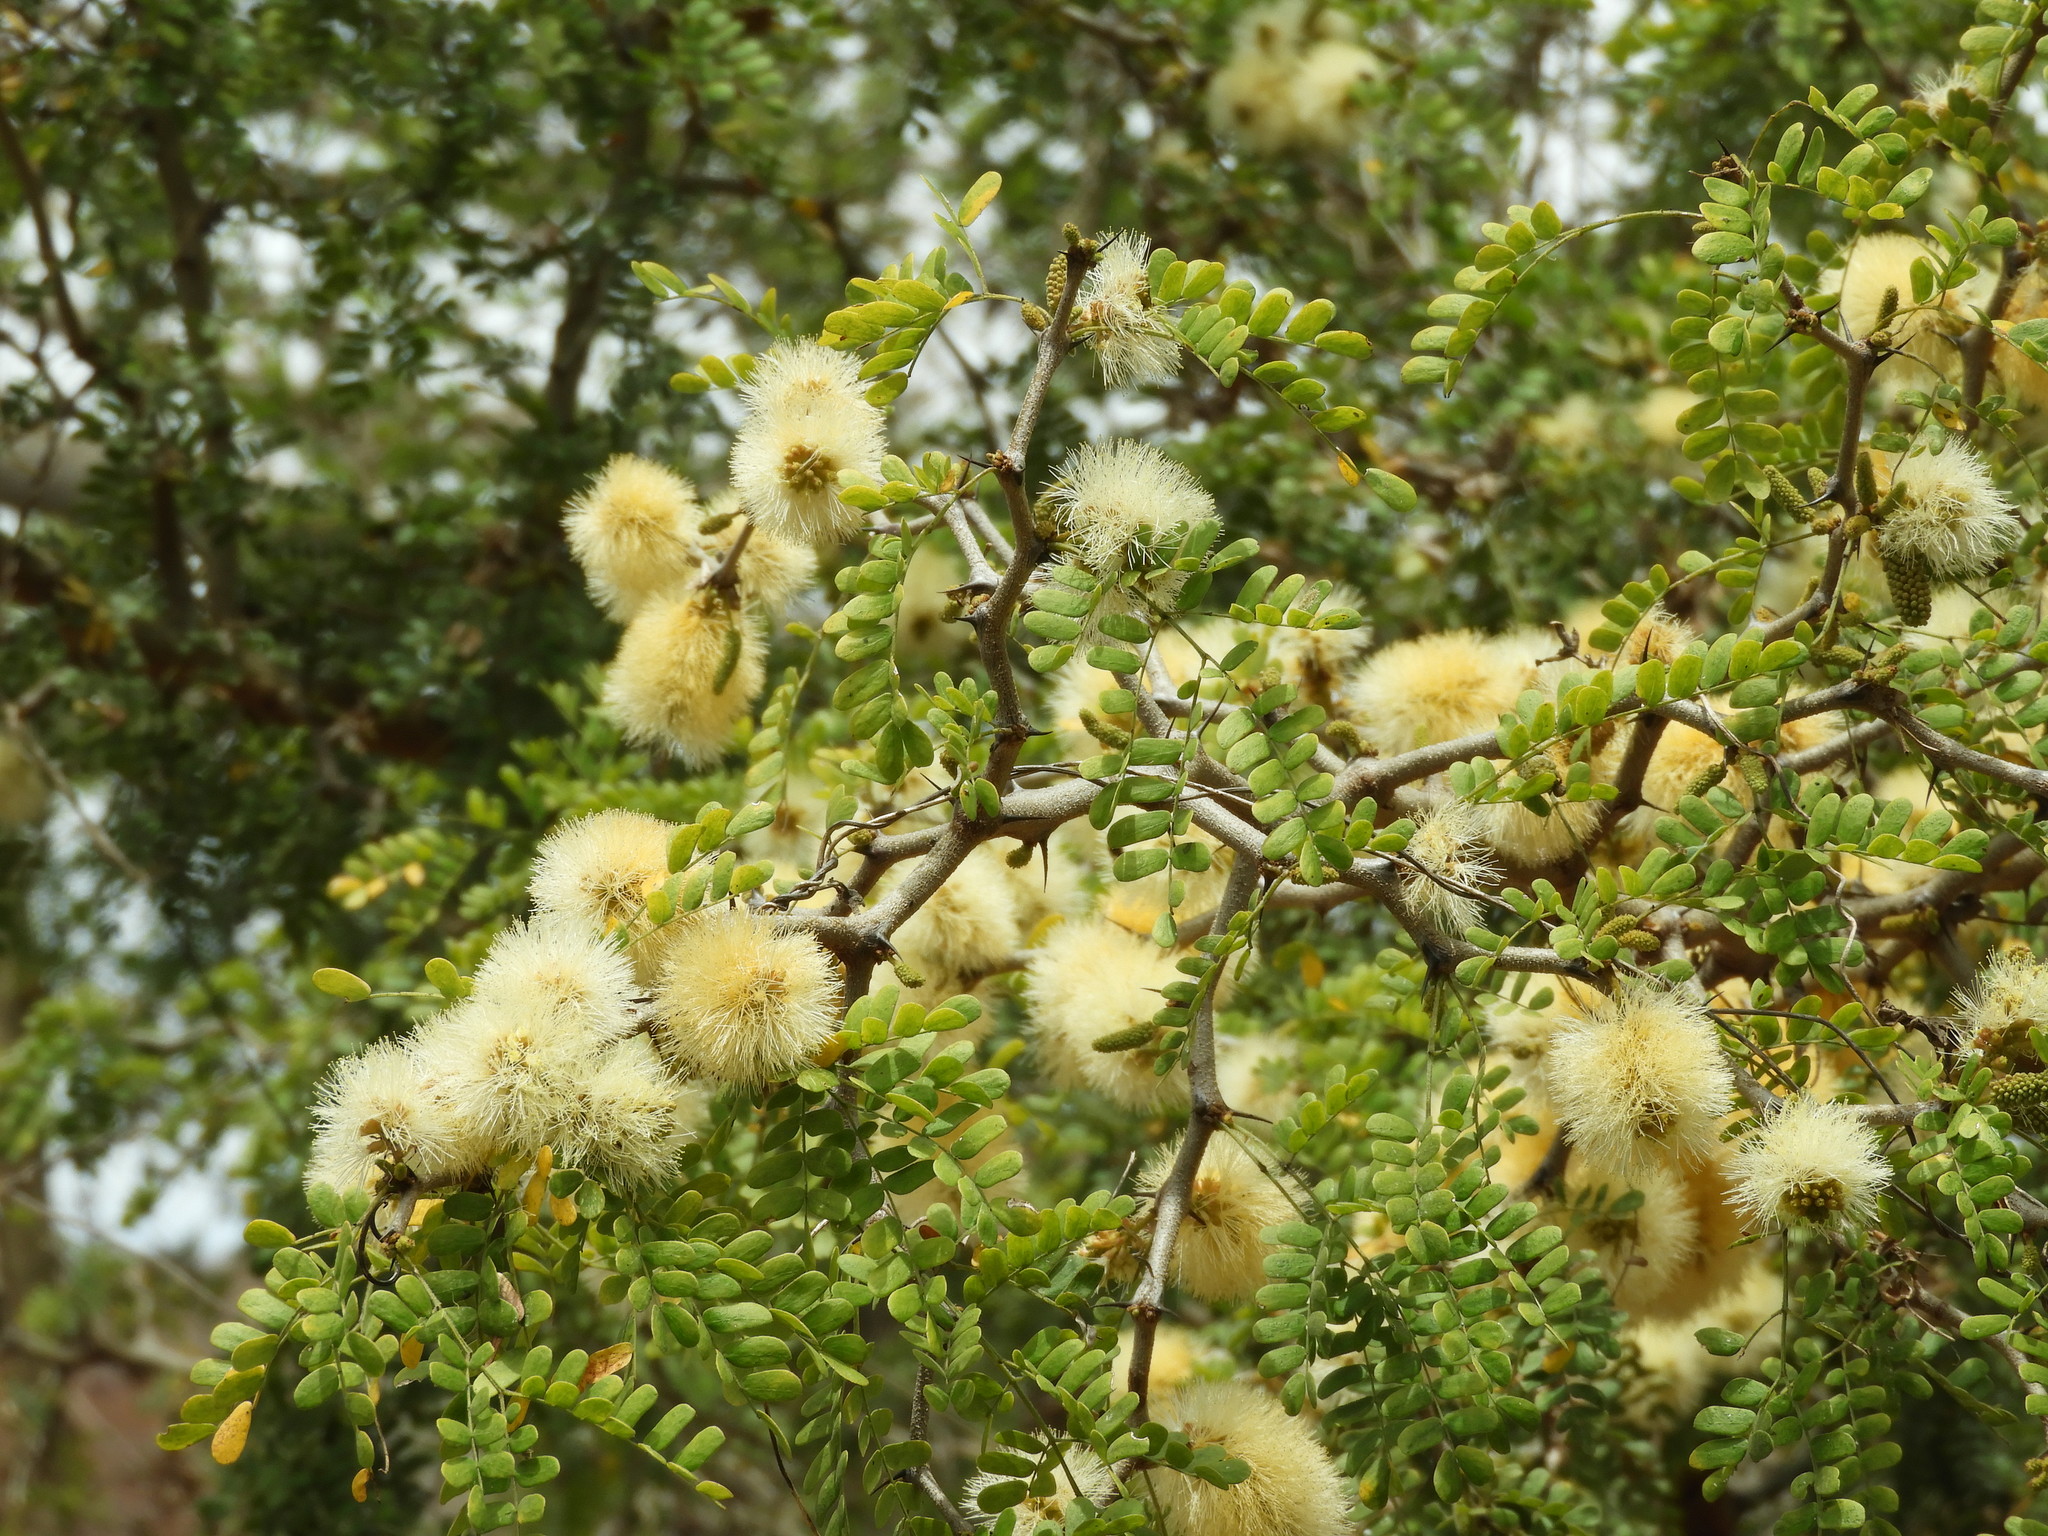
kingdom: Plantae
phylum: Tracheophyta
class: Magnoliopsida
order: Fabales
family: Fabaceae
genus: Ebenopsis
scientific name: Ebenopsis caesalpinioides
